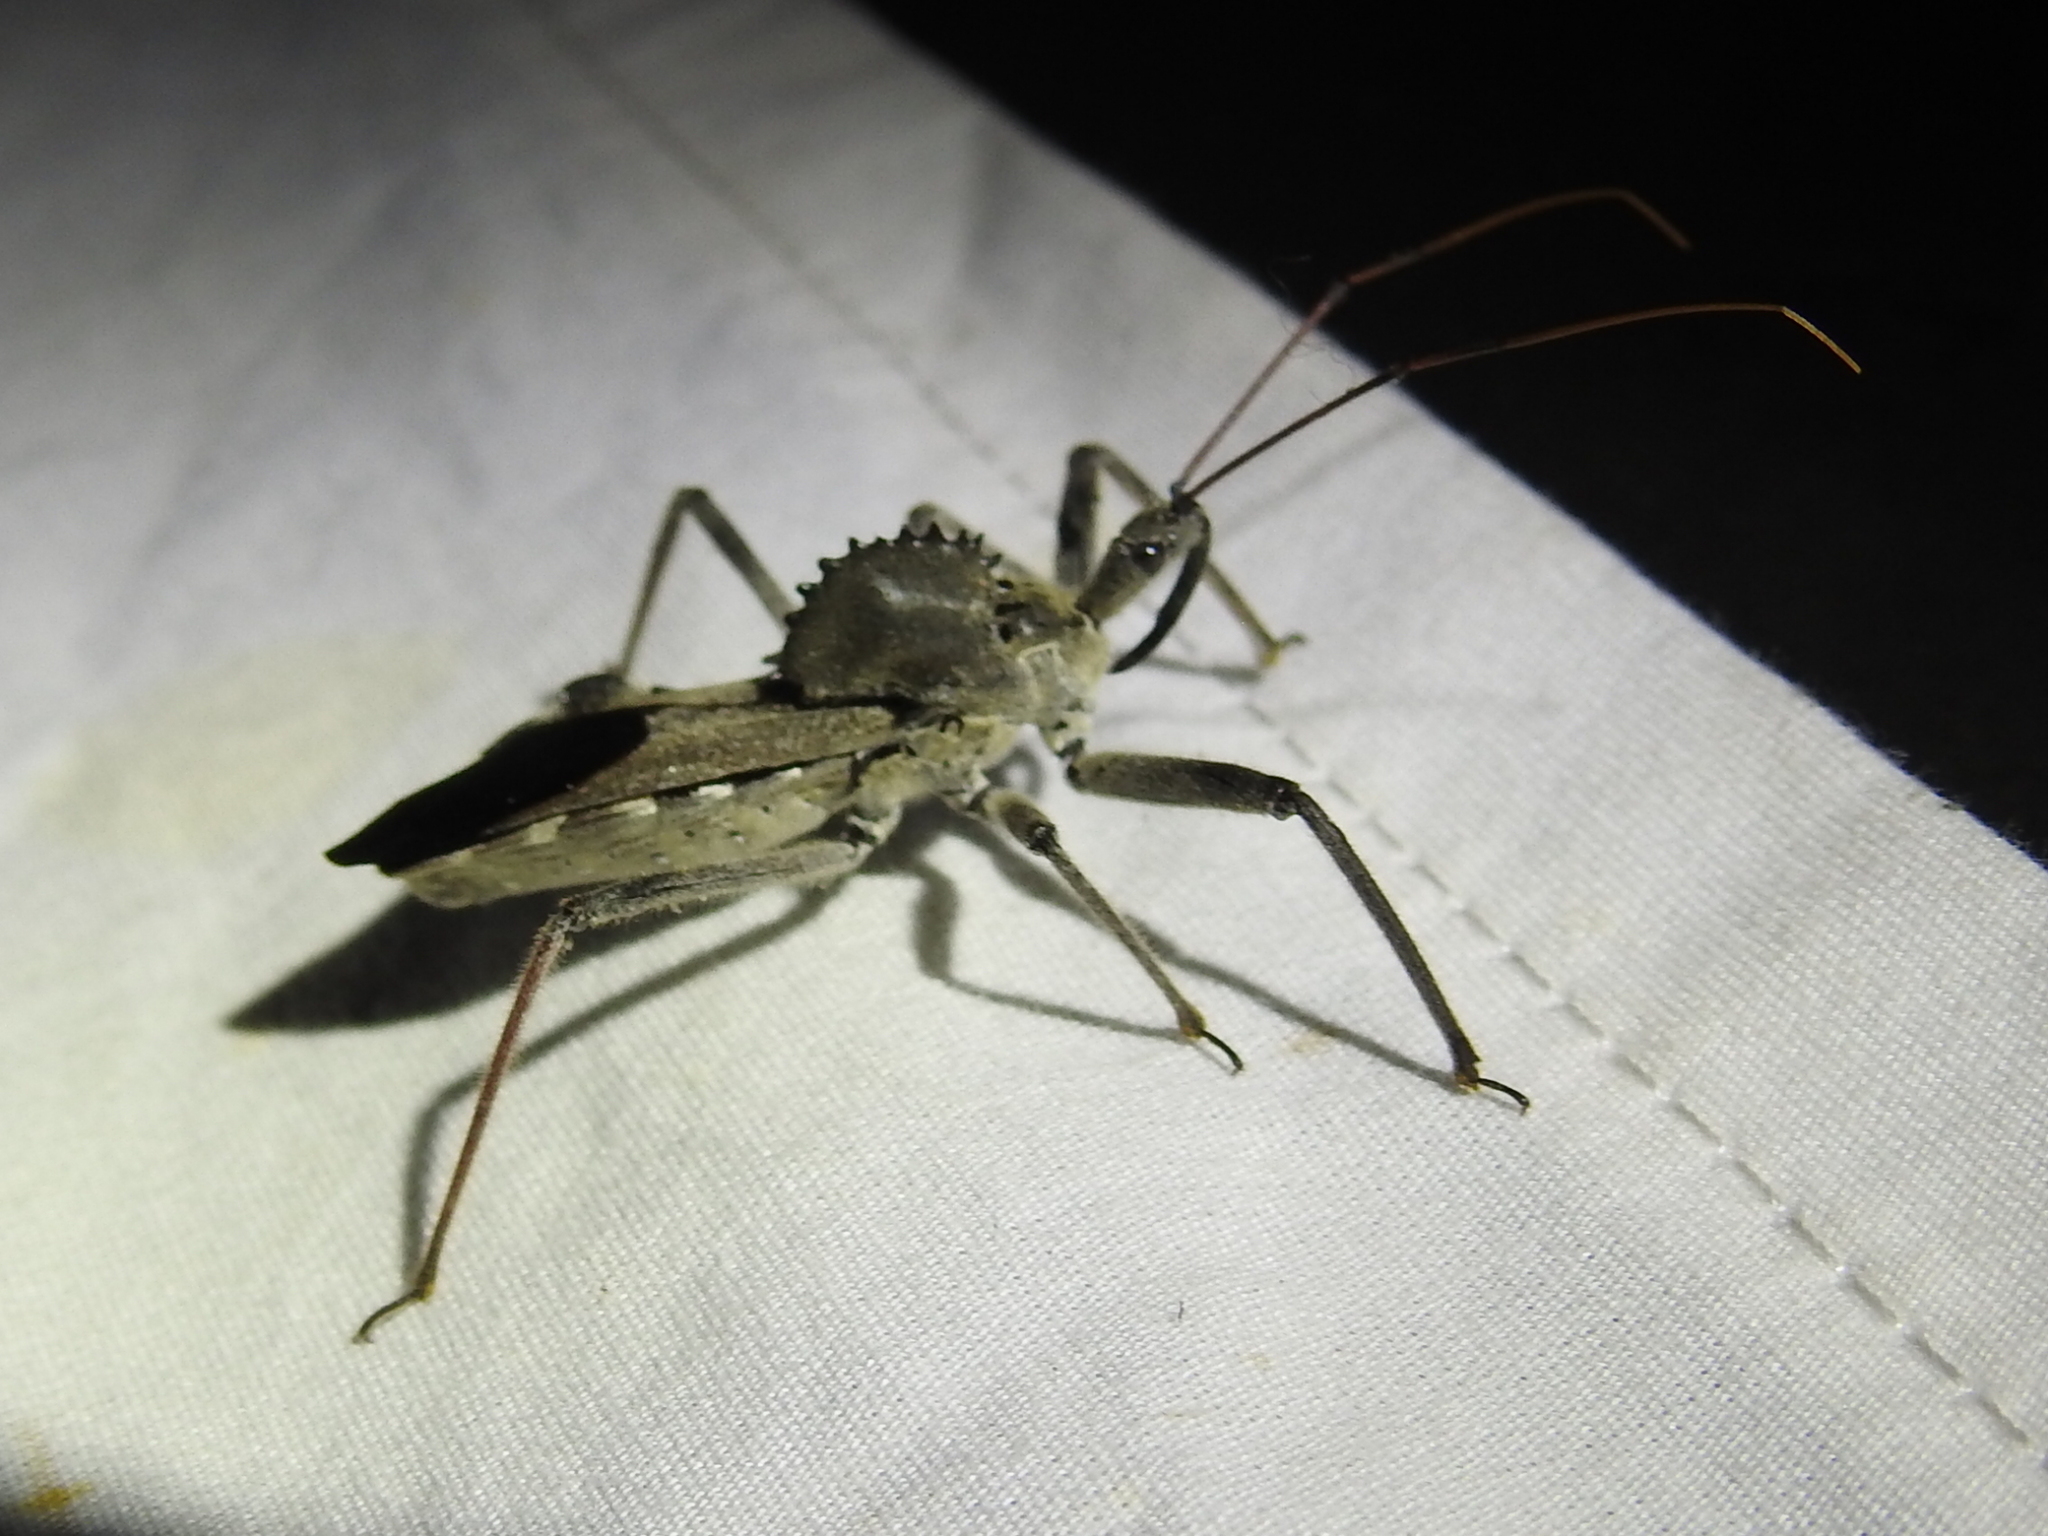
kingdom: Animalia
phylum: Arthropoda
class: Insecta
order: Hemiptera
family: Reduviidae
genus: Arilus
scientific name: Arilus cristatus
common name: North american wheel bug
